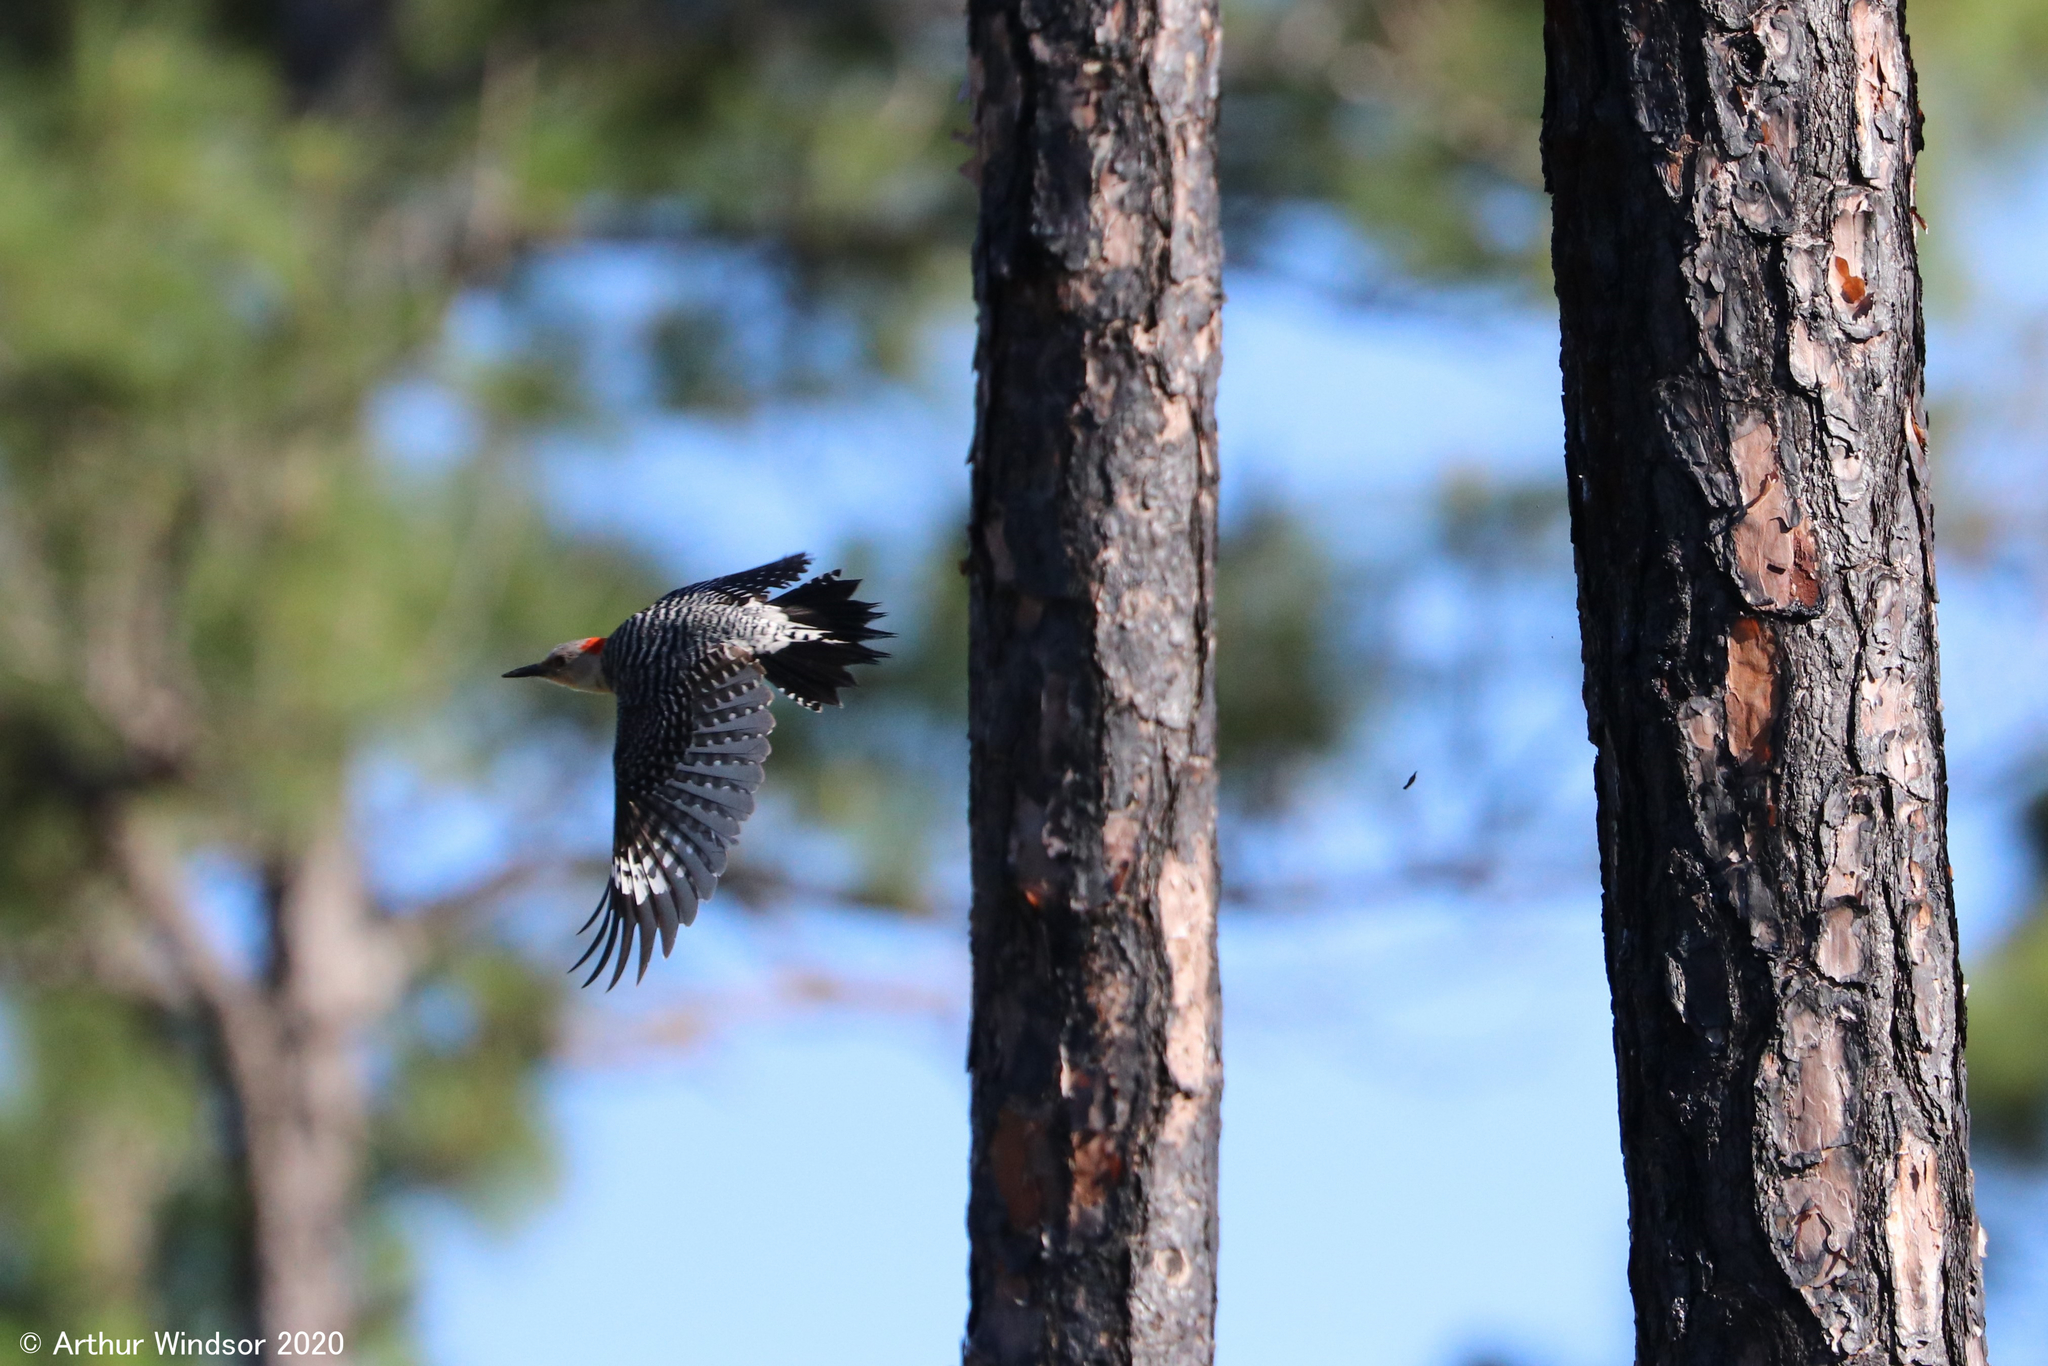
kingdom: Animalia
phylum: Chordata
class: Aves
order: Piciformes
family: Picidae
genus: Melanerpes
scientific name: Melanerpes carolinus
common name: Red-bellied woodpecker
